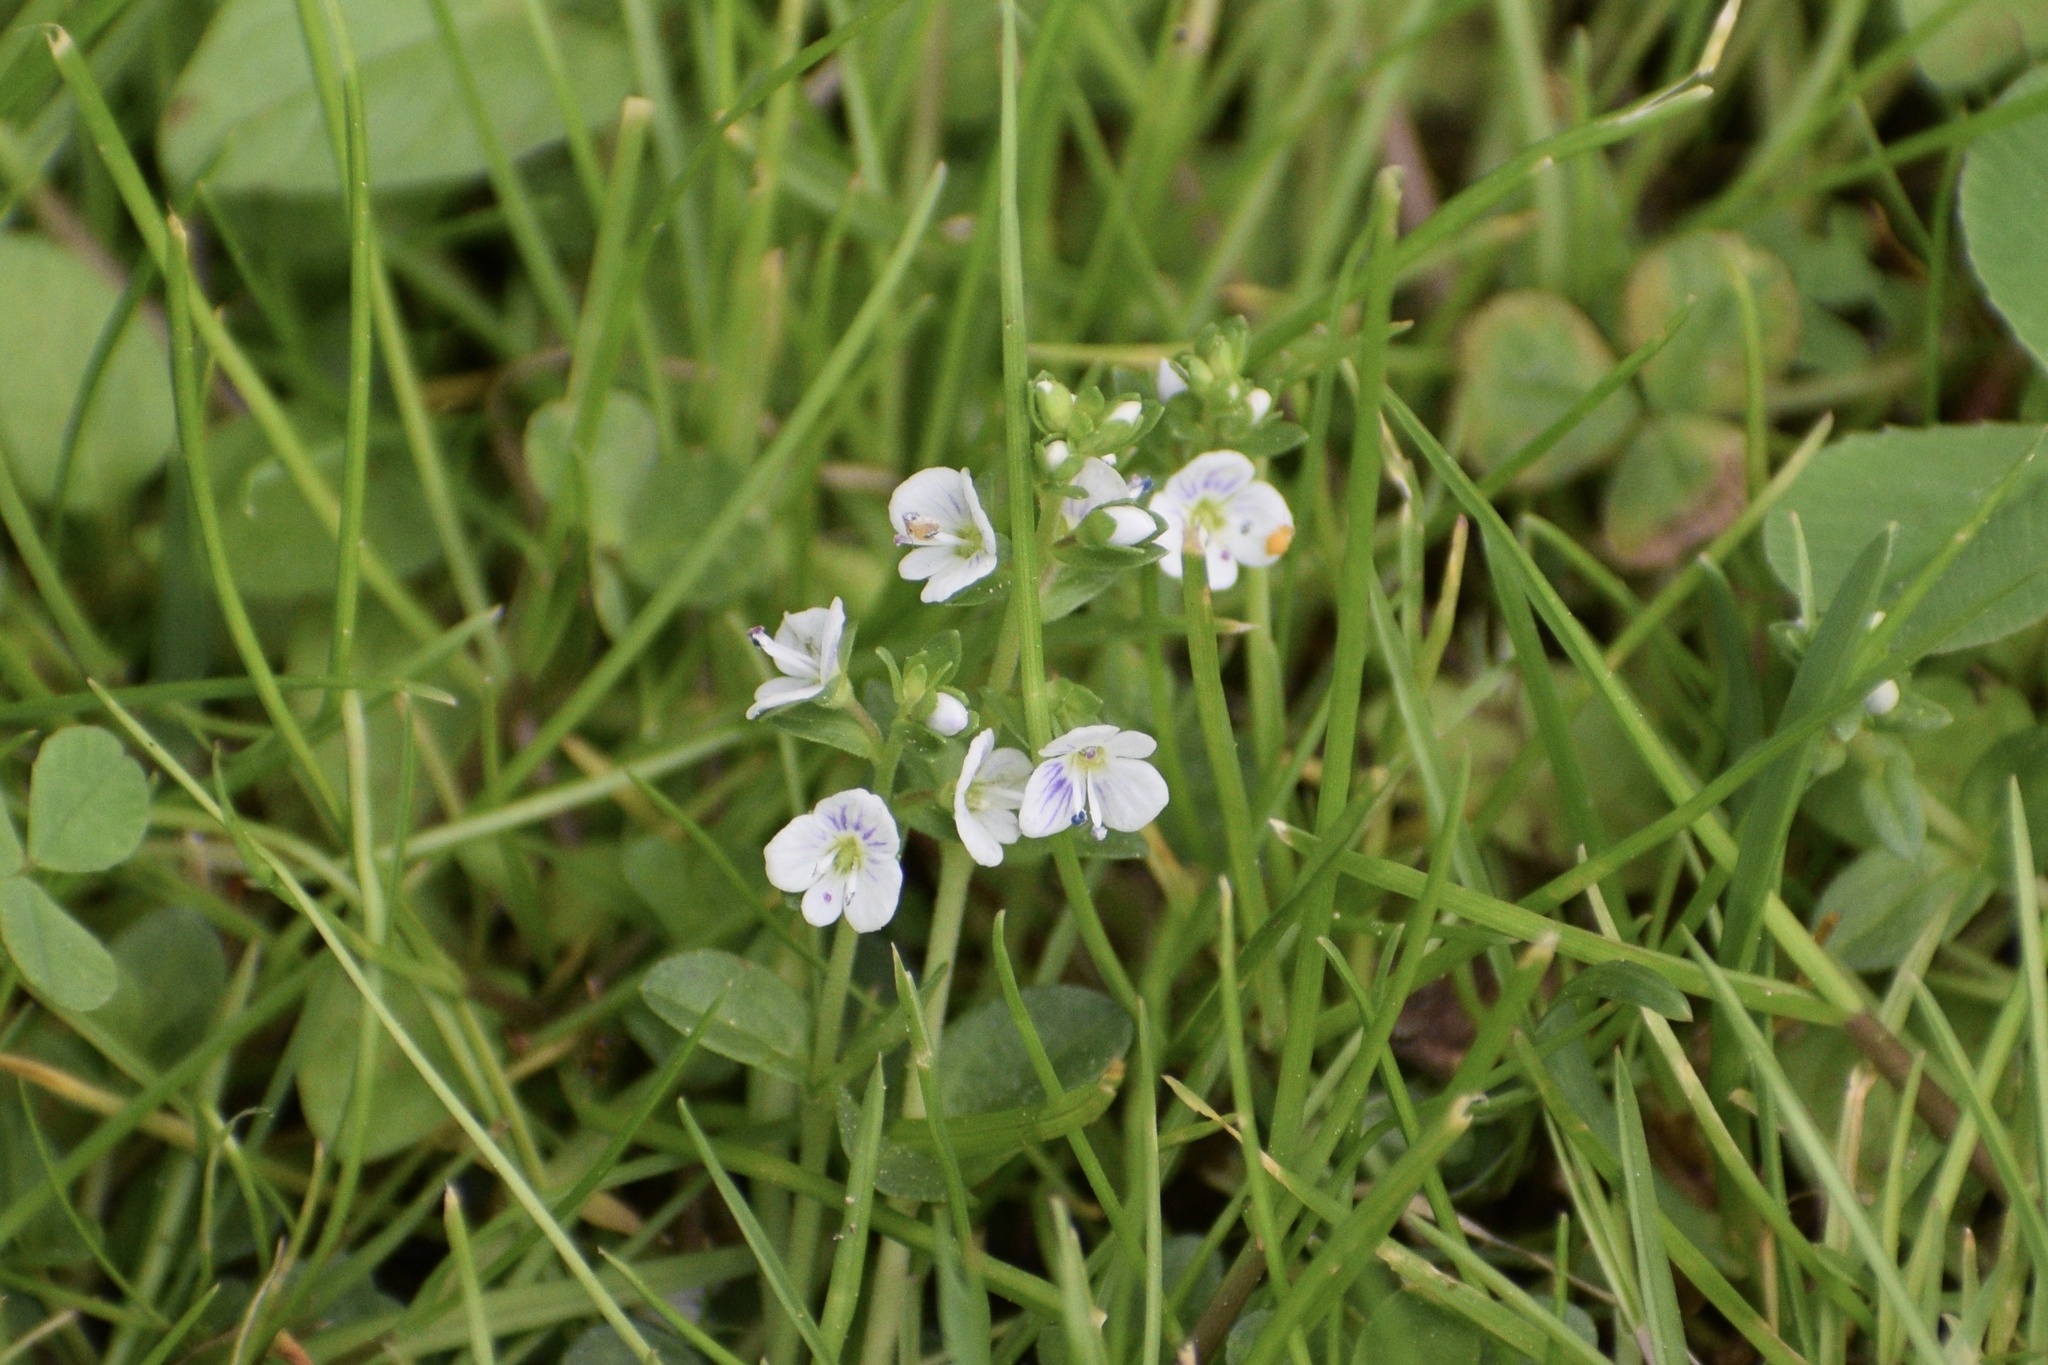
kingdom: Plantae
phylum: Tracheophyta
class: Magnoliopsida
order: Lamiales
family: Plantaginaceae
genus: Veronica
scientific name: Veronica serpyllifolia
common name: Thyme-leaved speedwell
